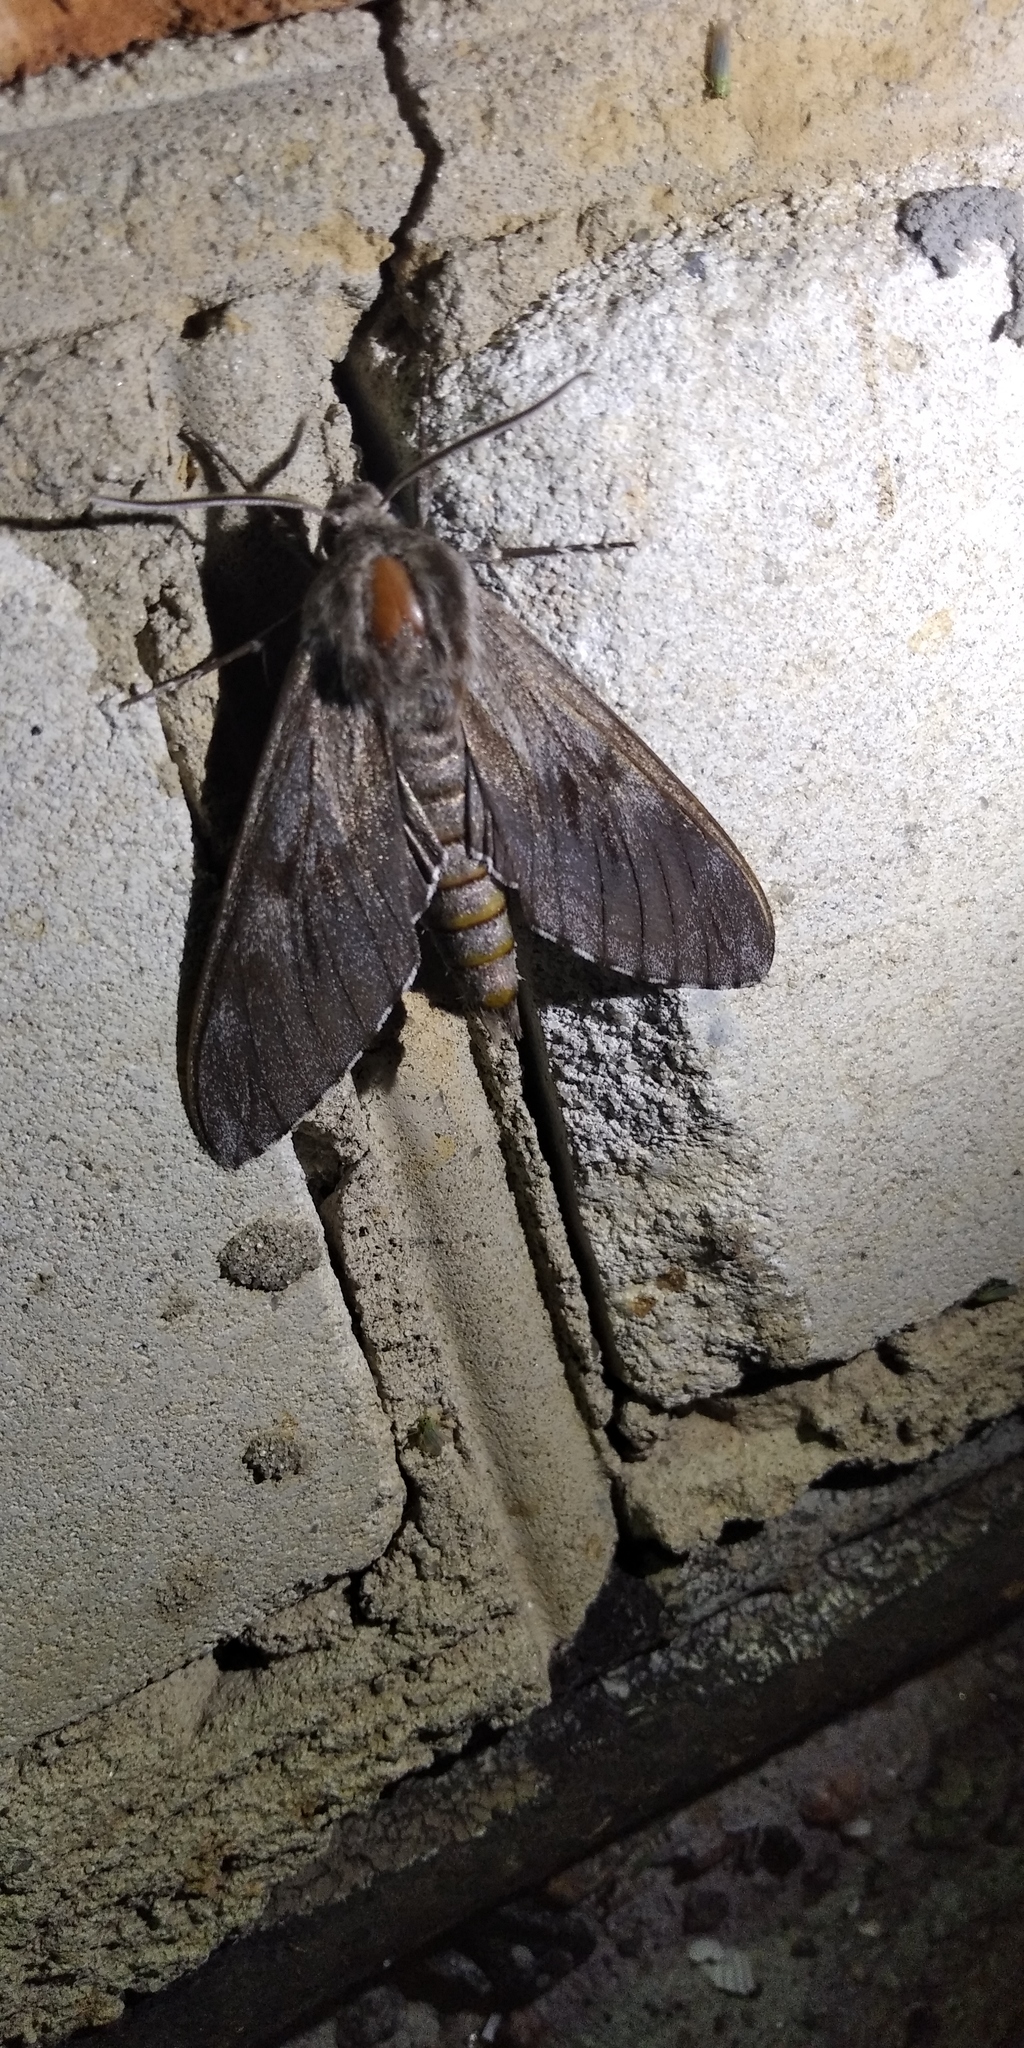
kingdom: Animalia
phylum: Arthropoda
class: Insecta
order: Lepidoptera
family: Sphingidae
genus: Sphinx
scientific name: Sphinx pinastri
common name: Pine hawk-moth
